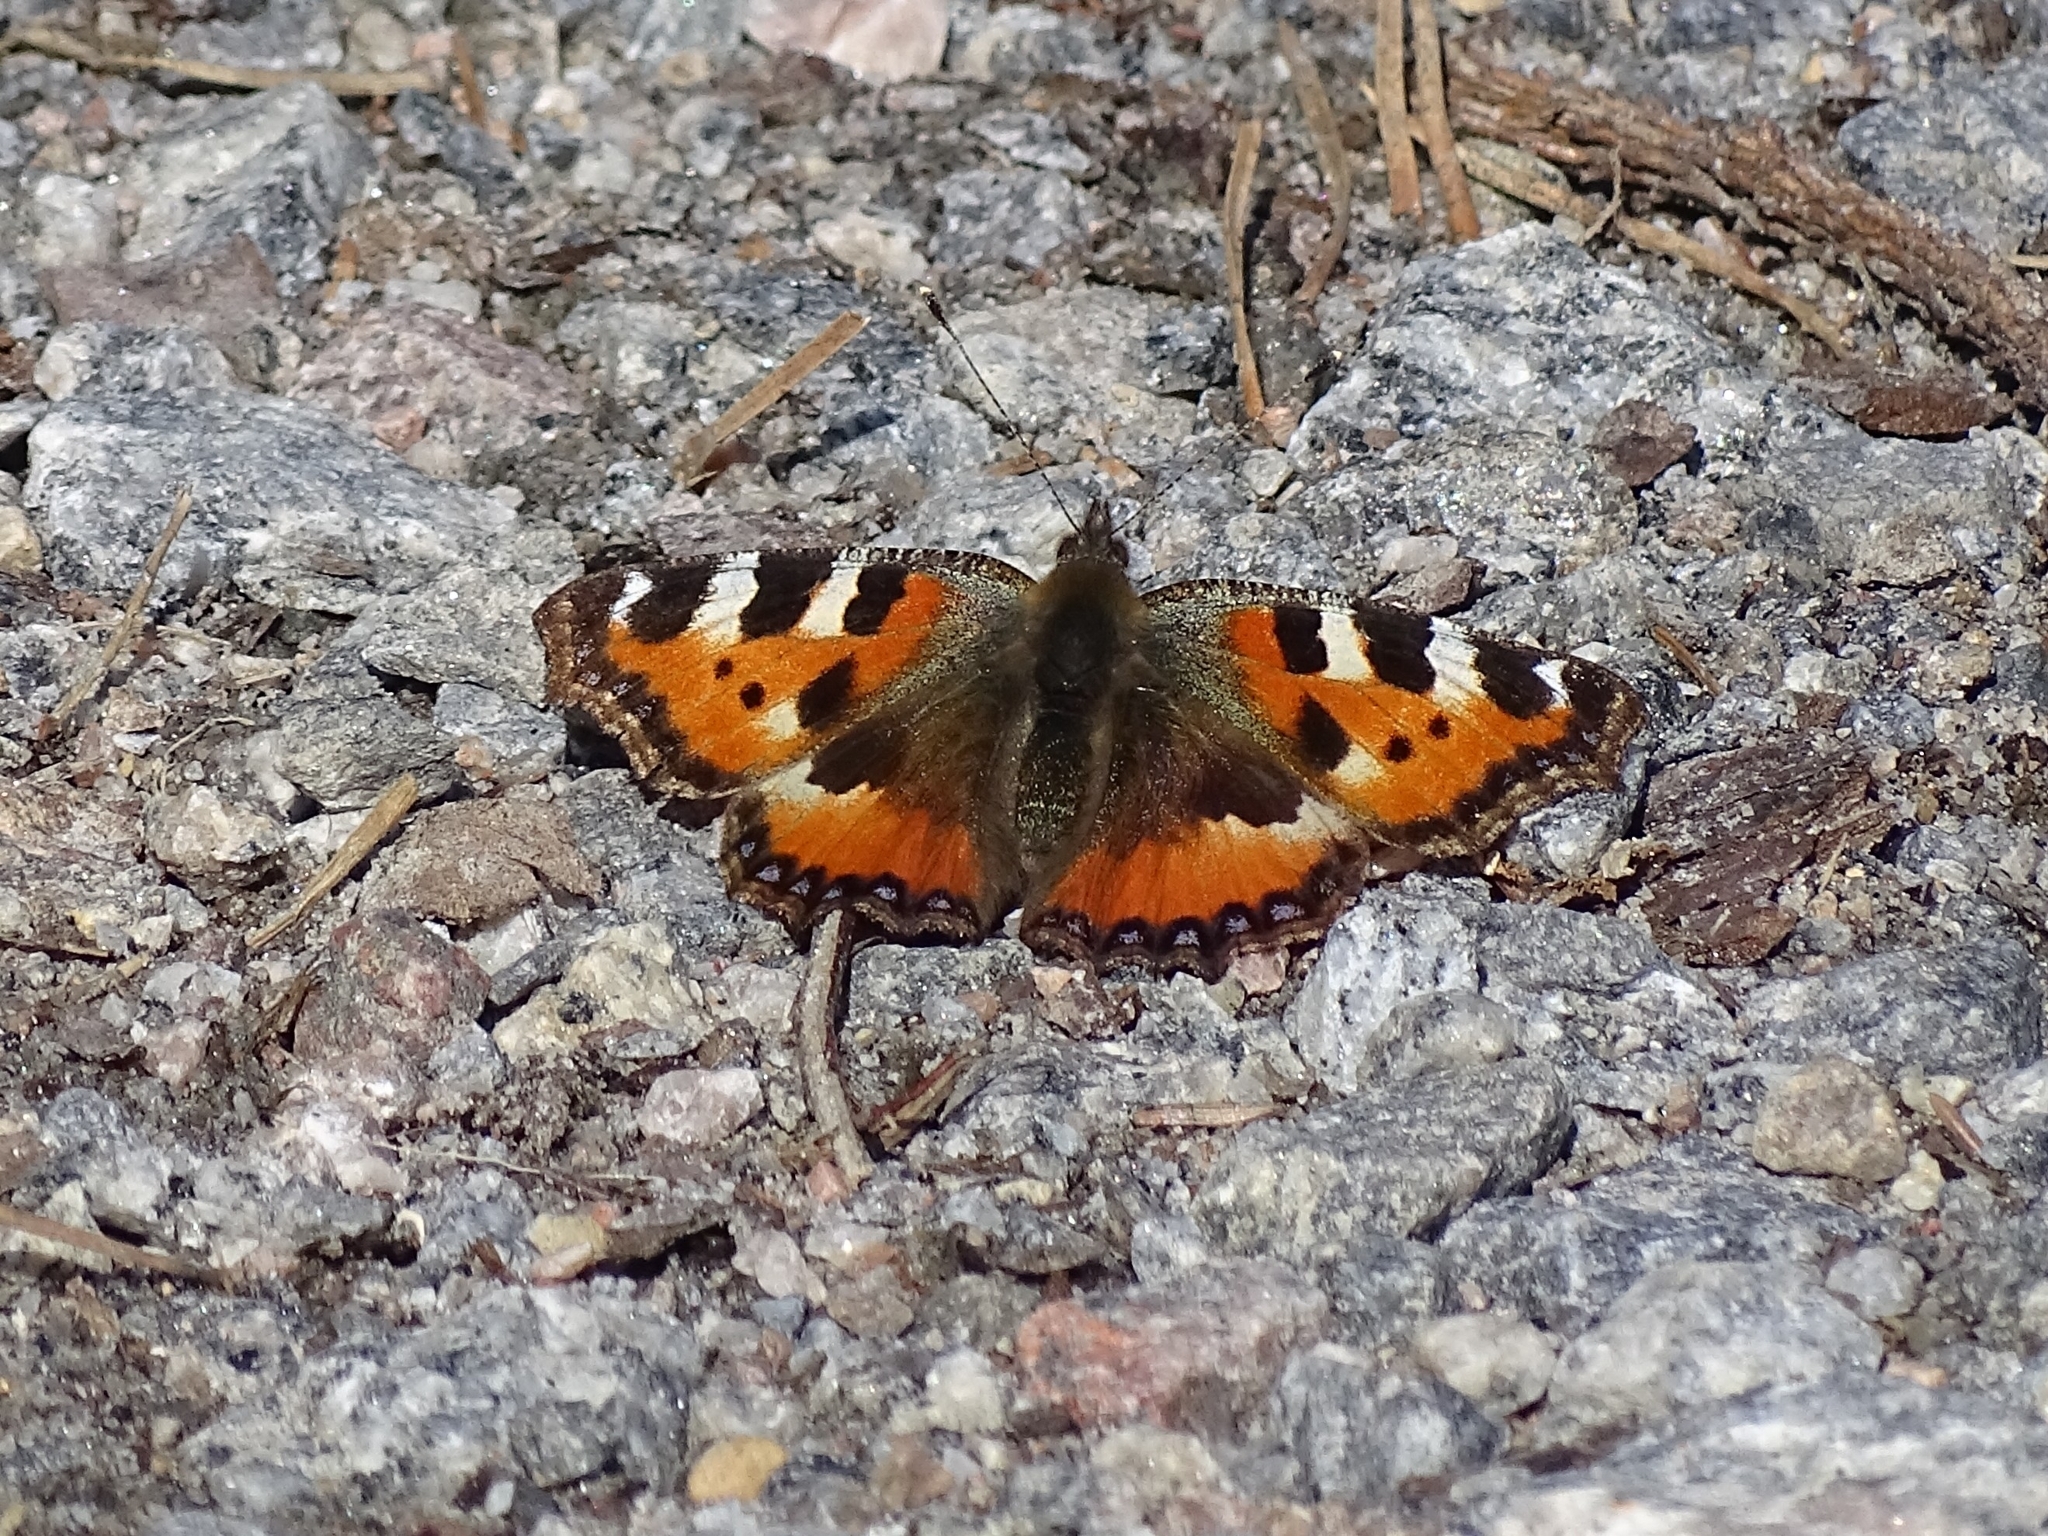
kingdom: Animalia
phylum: Arthropoda
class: Insecta
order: Lepidoptera
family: Nymphalidae
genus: Aglais
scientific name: Aglais urticae
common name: Small tortoiseshell
